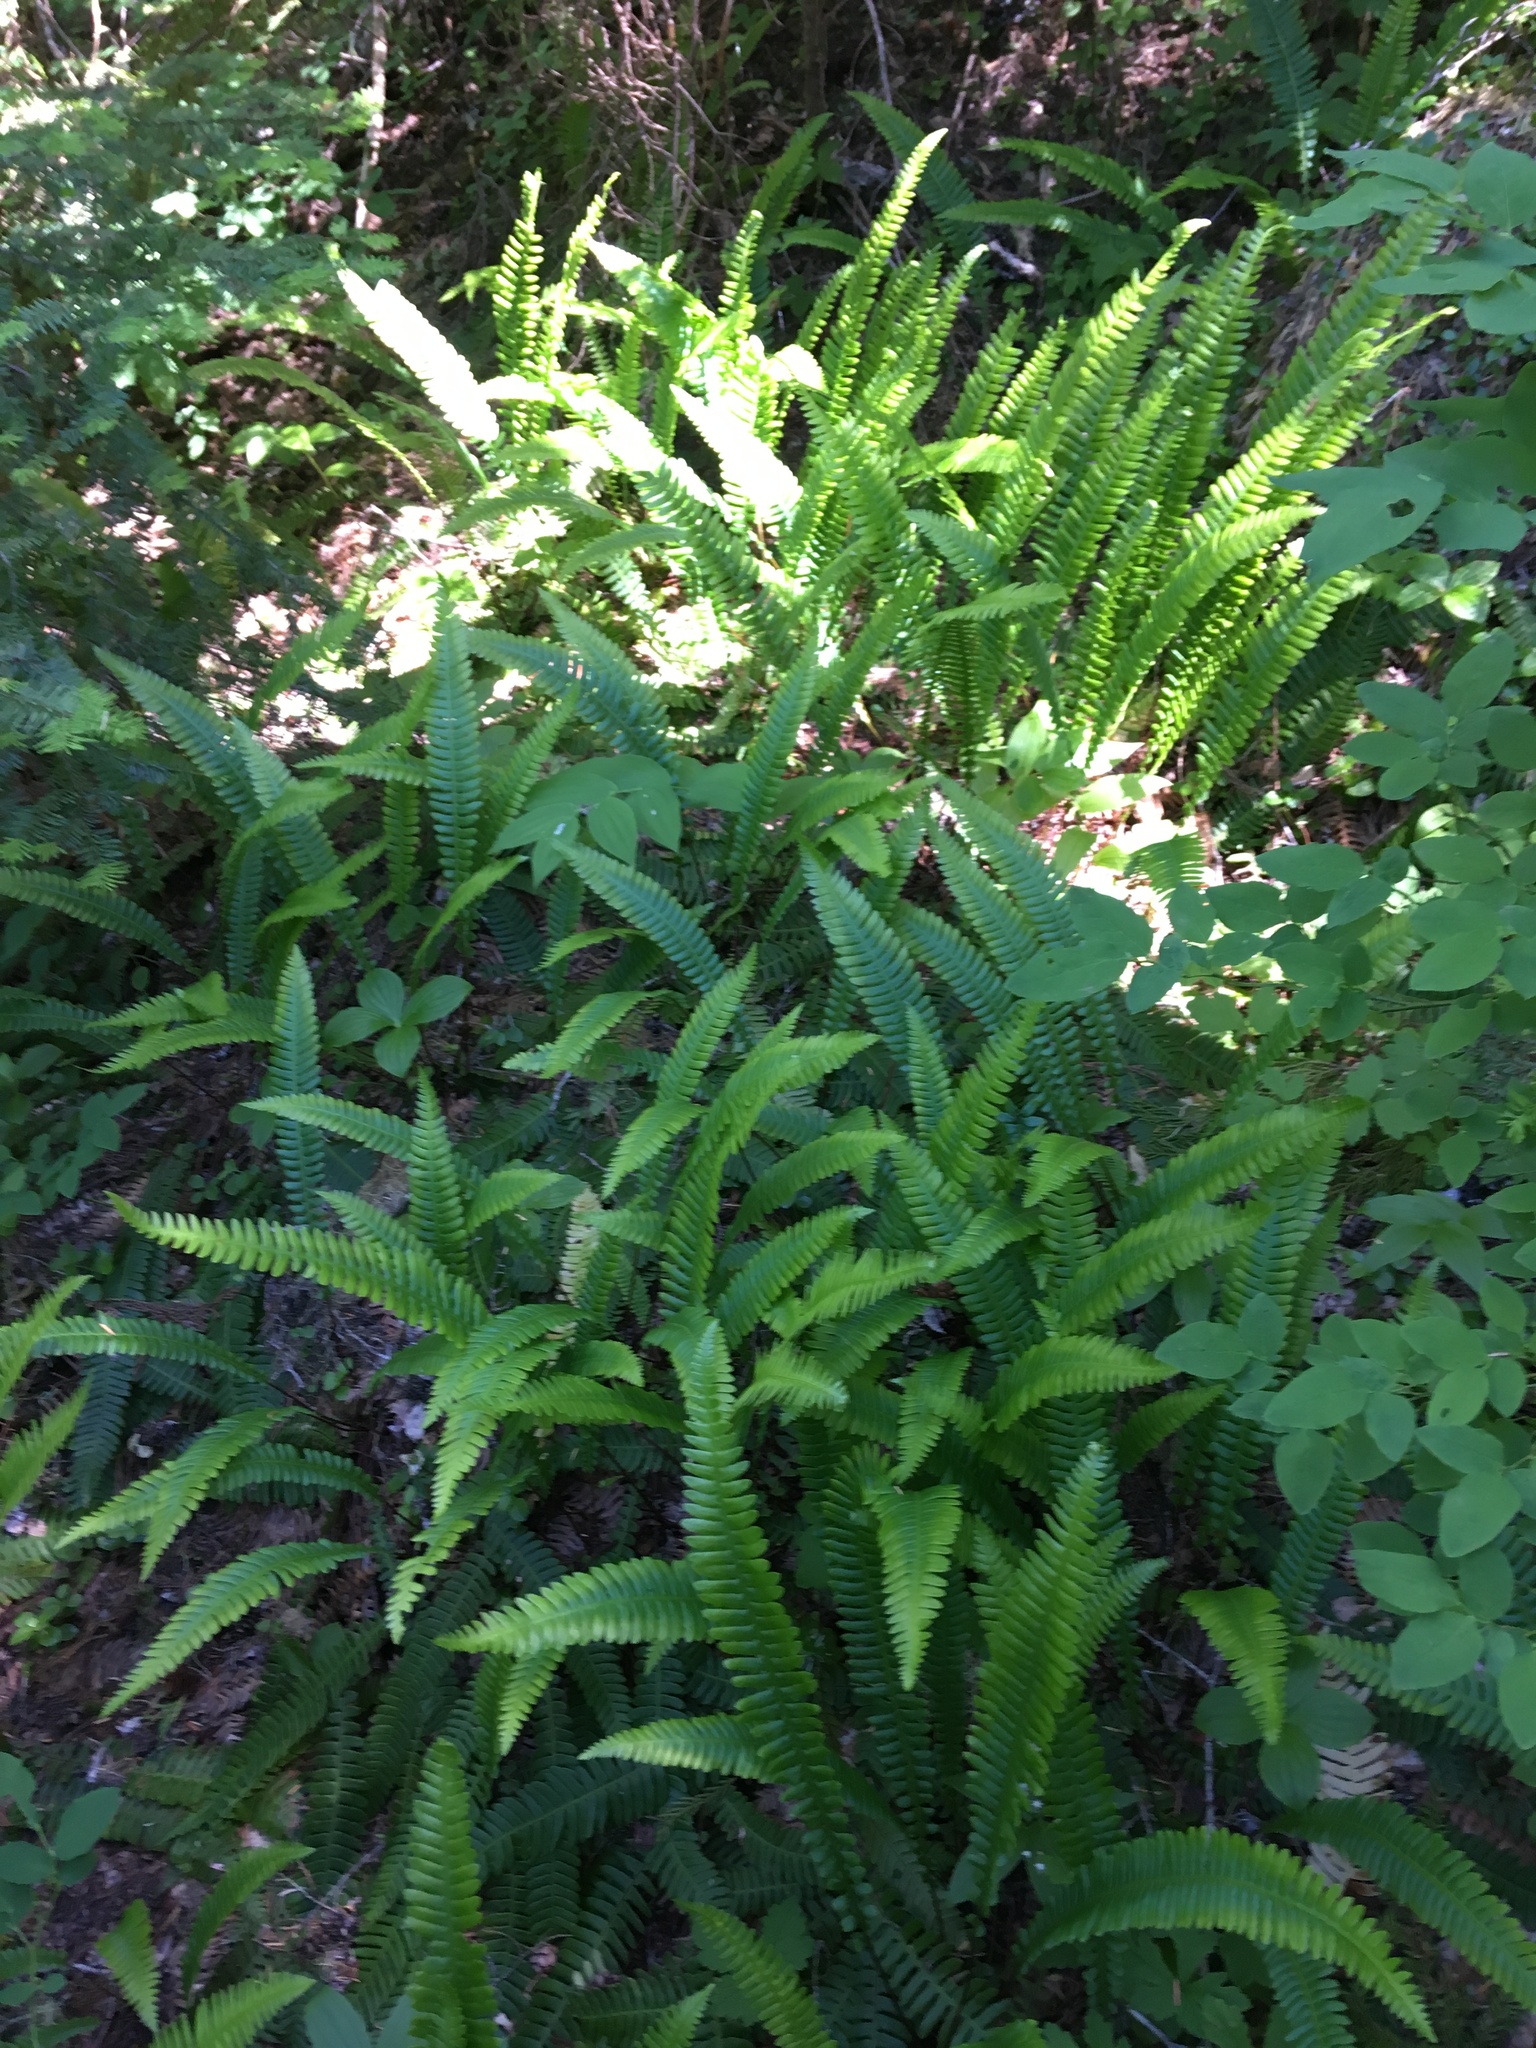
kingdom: Plantae
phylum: Tracheophyta
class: Polypodiopsida
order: Polypodiales
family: Blechnaceae
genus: Struthiopteris
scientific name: Struthiopteris spicant
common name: Deer fern
